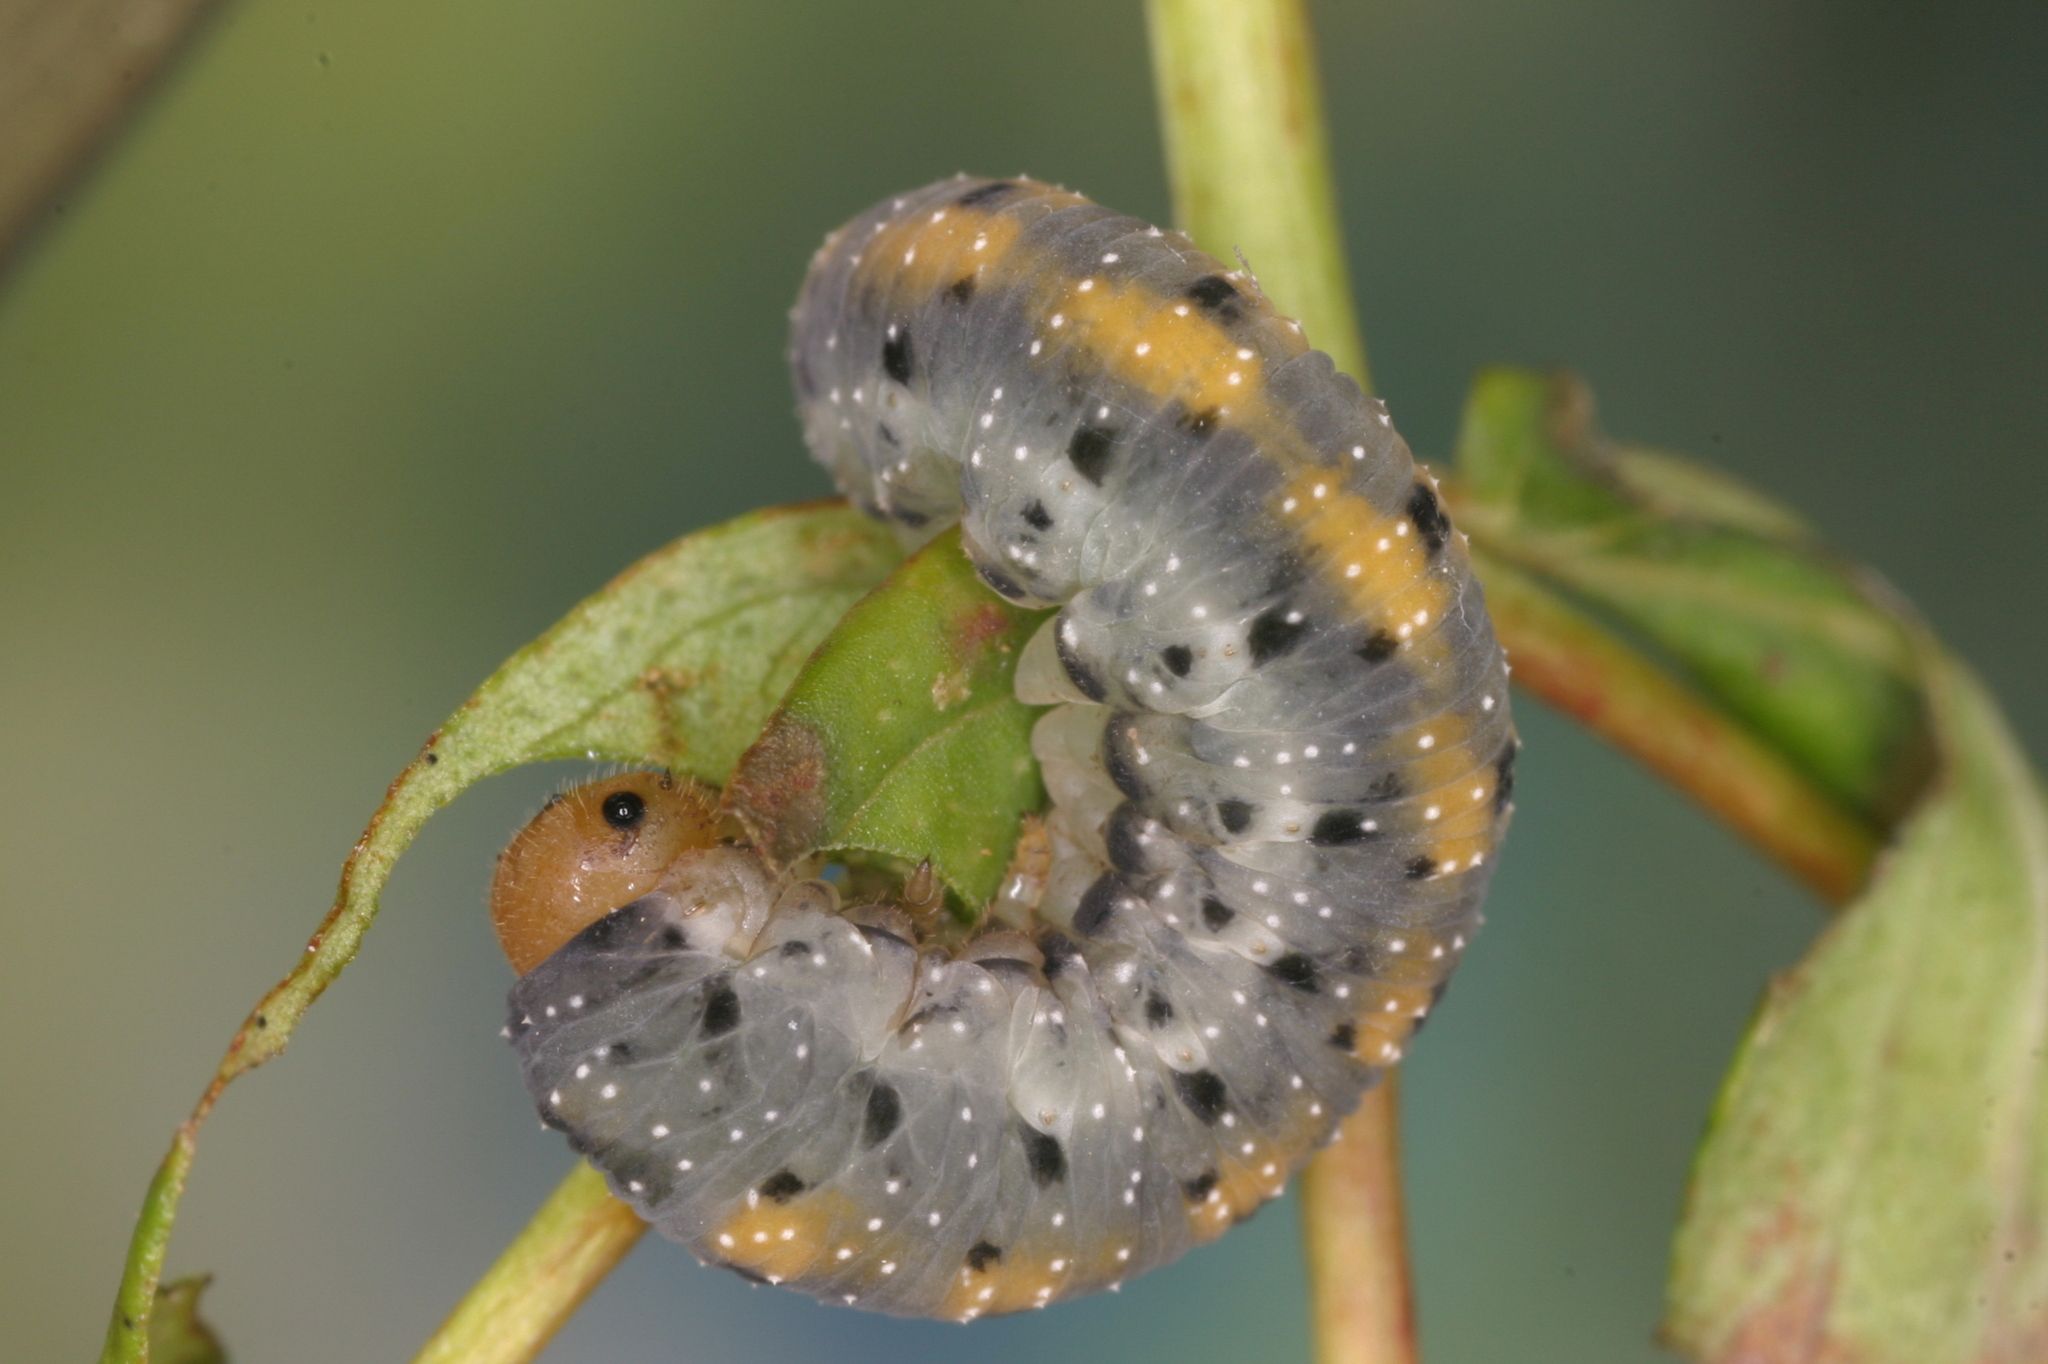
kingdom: Animalia
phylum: Arthropoda
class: Insecta
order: Hymenoptera
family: Tenthredinidae
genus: Tenthredo
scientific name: Tenthredo amoena
